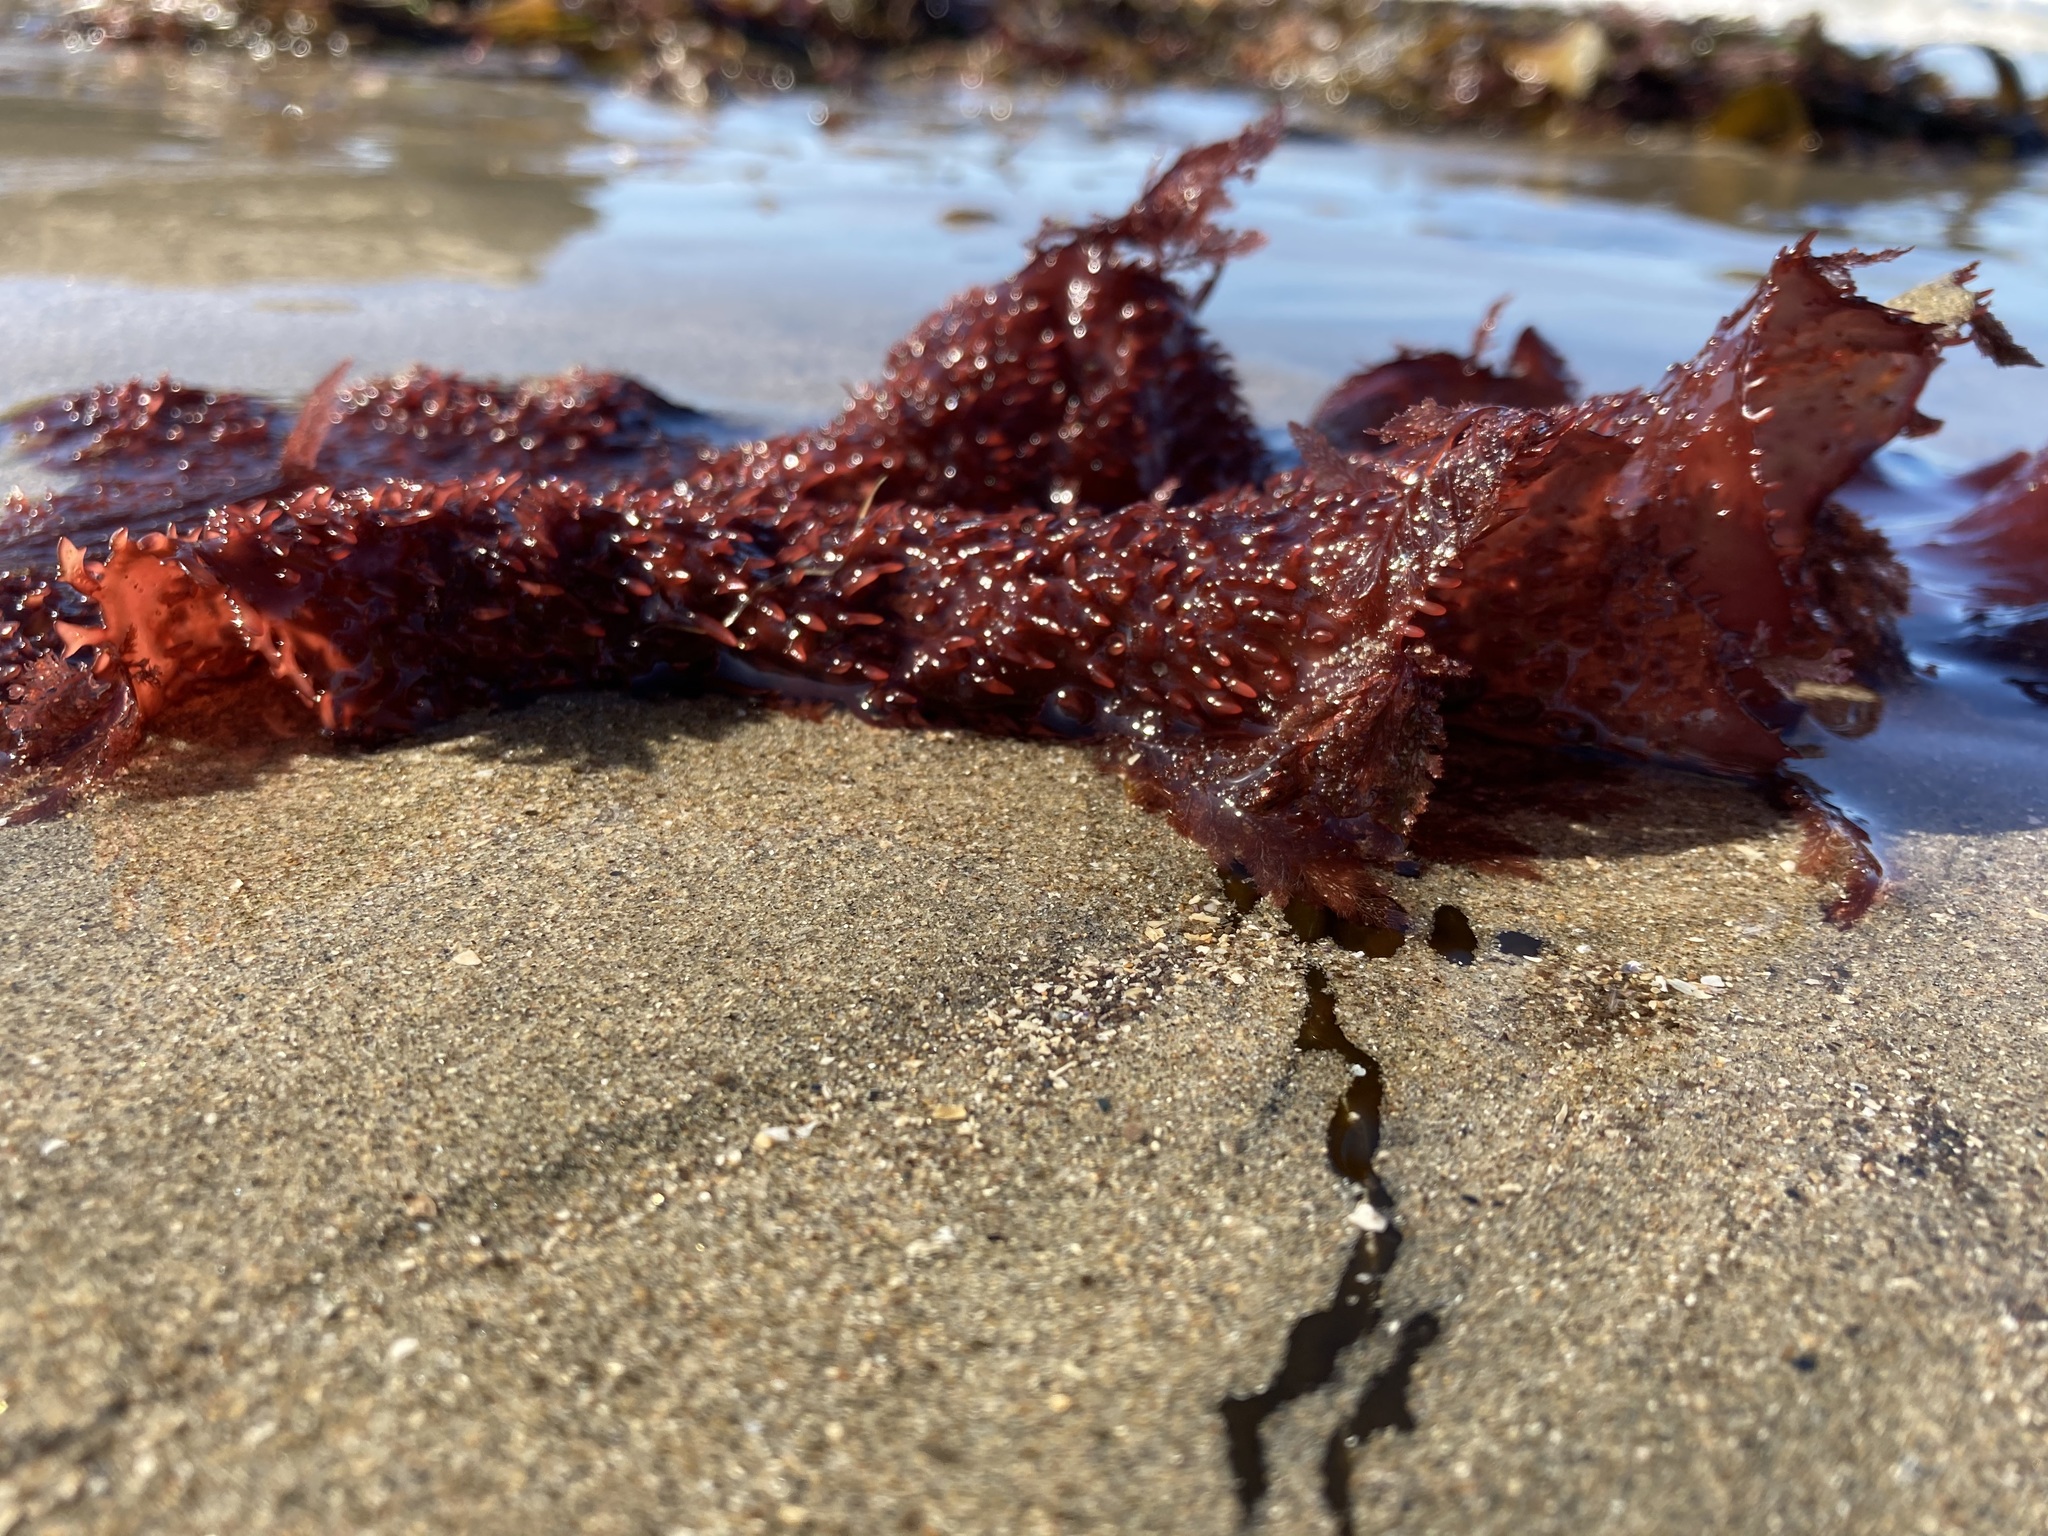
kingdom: Plantae
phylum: Rhodophyta
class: Florideophyceae
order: Gigartinales
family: Gigartinaceae
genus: Chondracanthus
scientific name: Chondracanthus exasperatus
